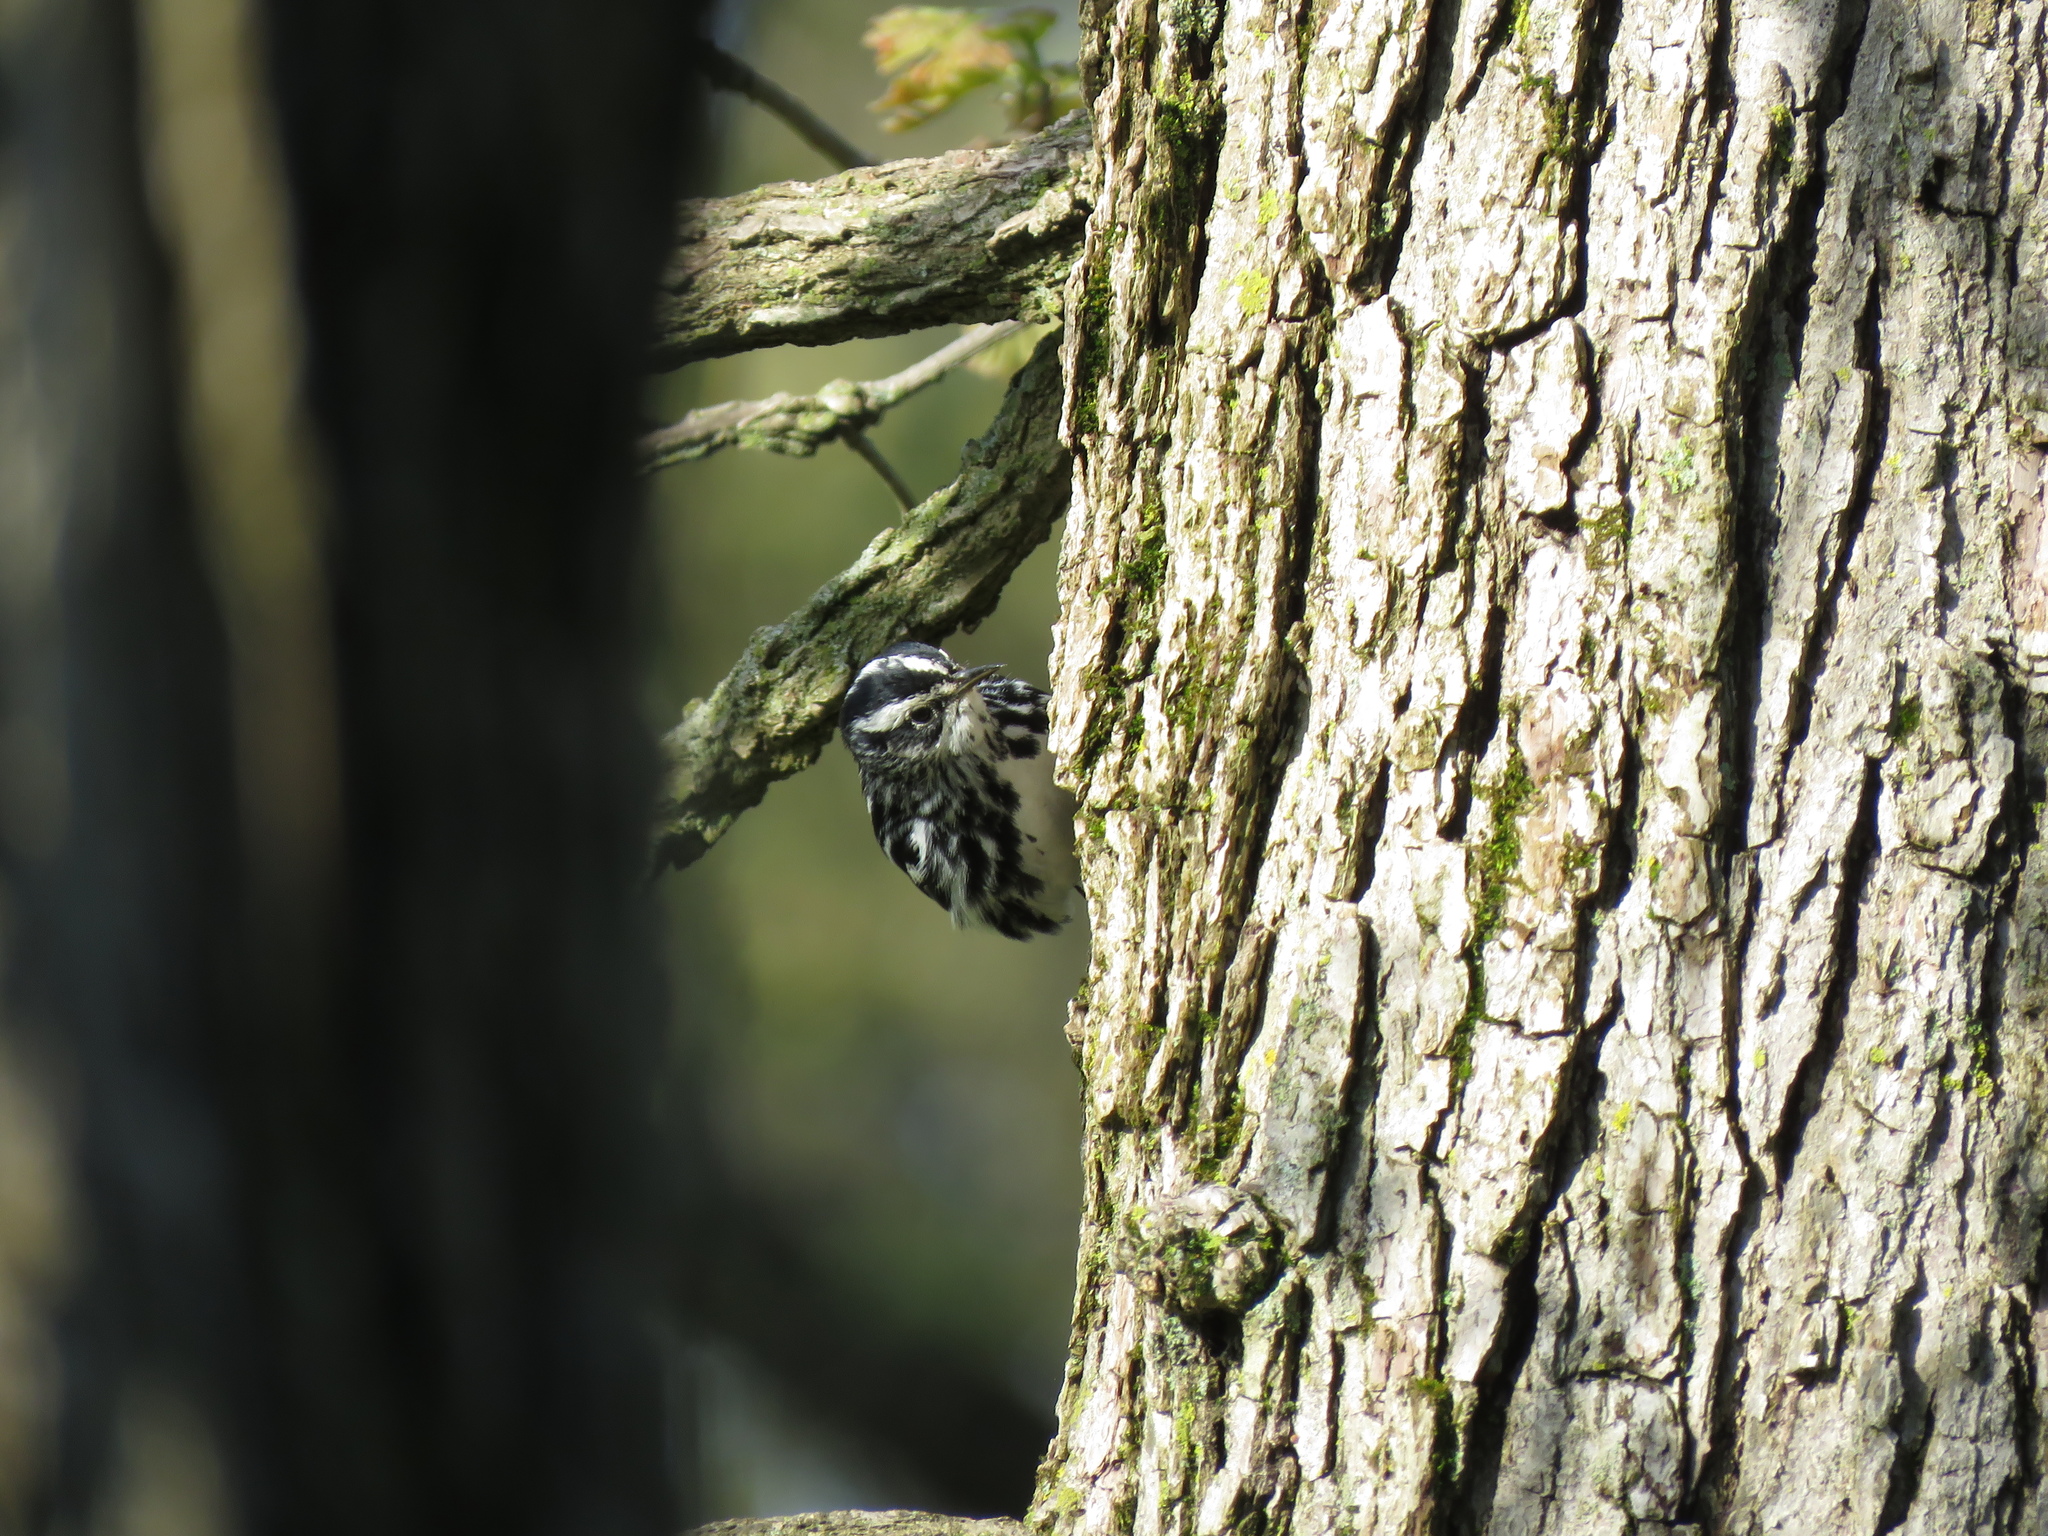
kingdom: Animalia
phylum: Chordata
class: Aves
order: Passeriformes
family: Parulidae
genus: Mniotilta
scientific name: Mniotilta varia
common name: Black-and-white warbler
